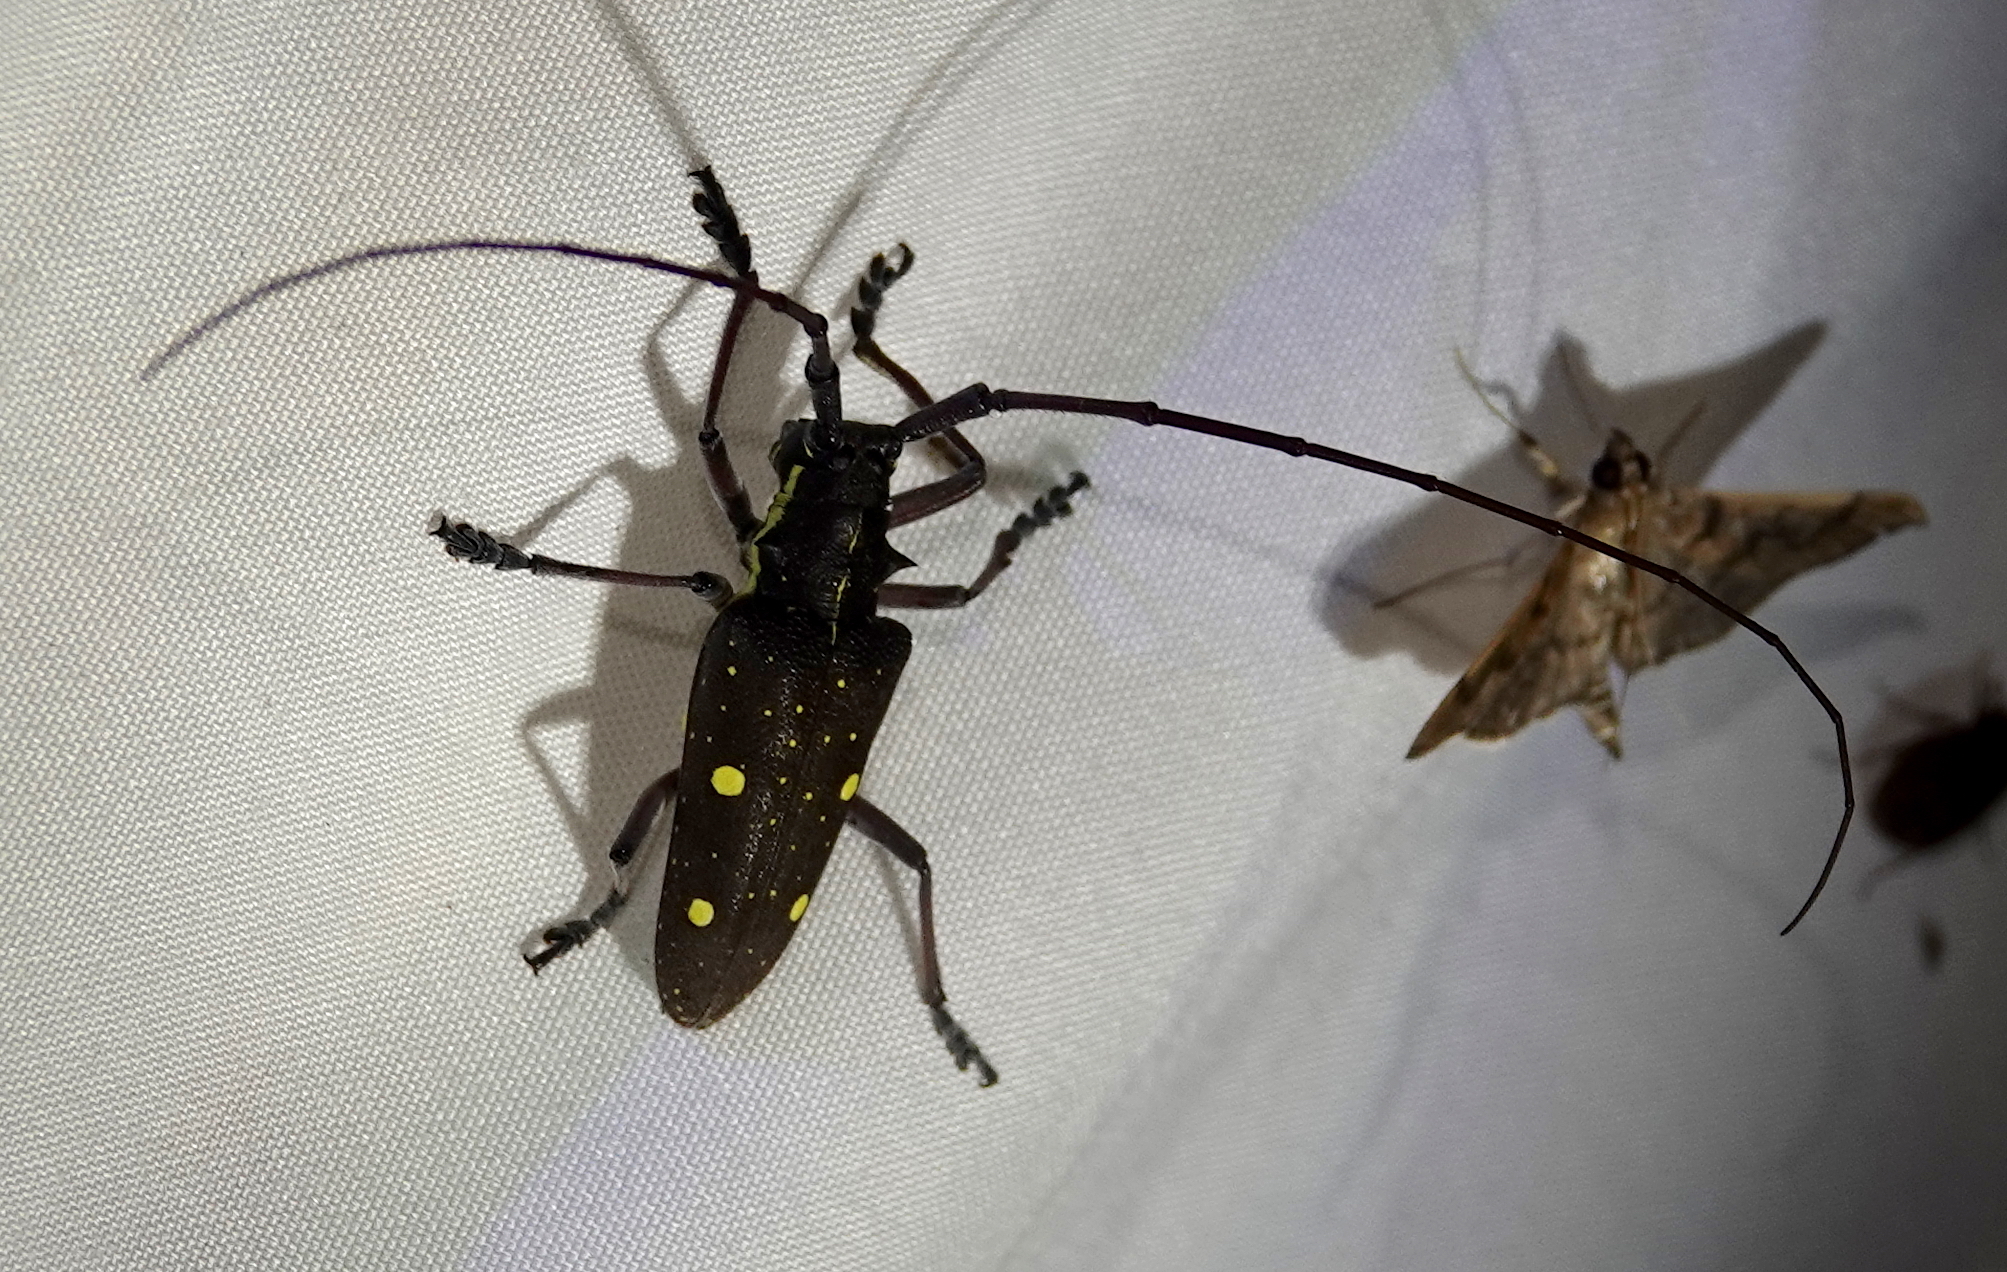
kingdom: Animalia
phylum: Arthropoda
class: Insecta
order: Coleoptera
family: Cerambycidae
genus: Taeniotes
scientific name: Taeniotes xanthostictus
